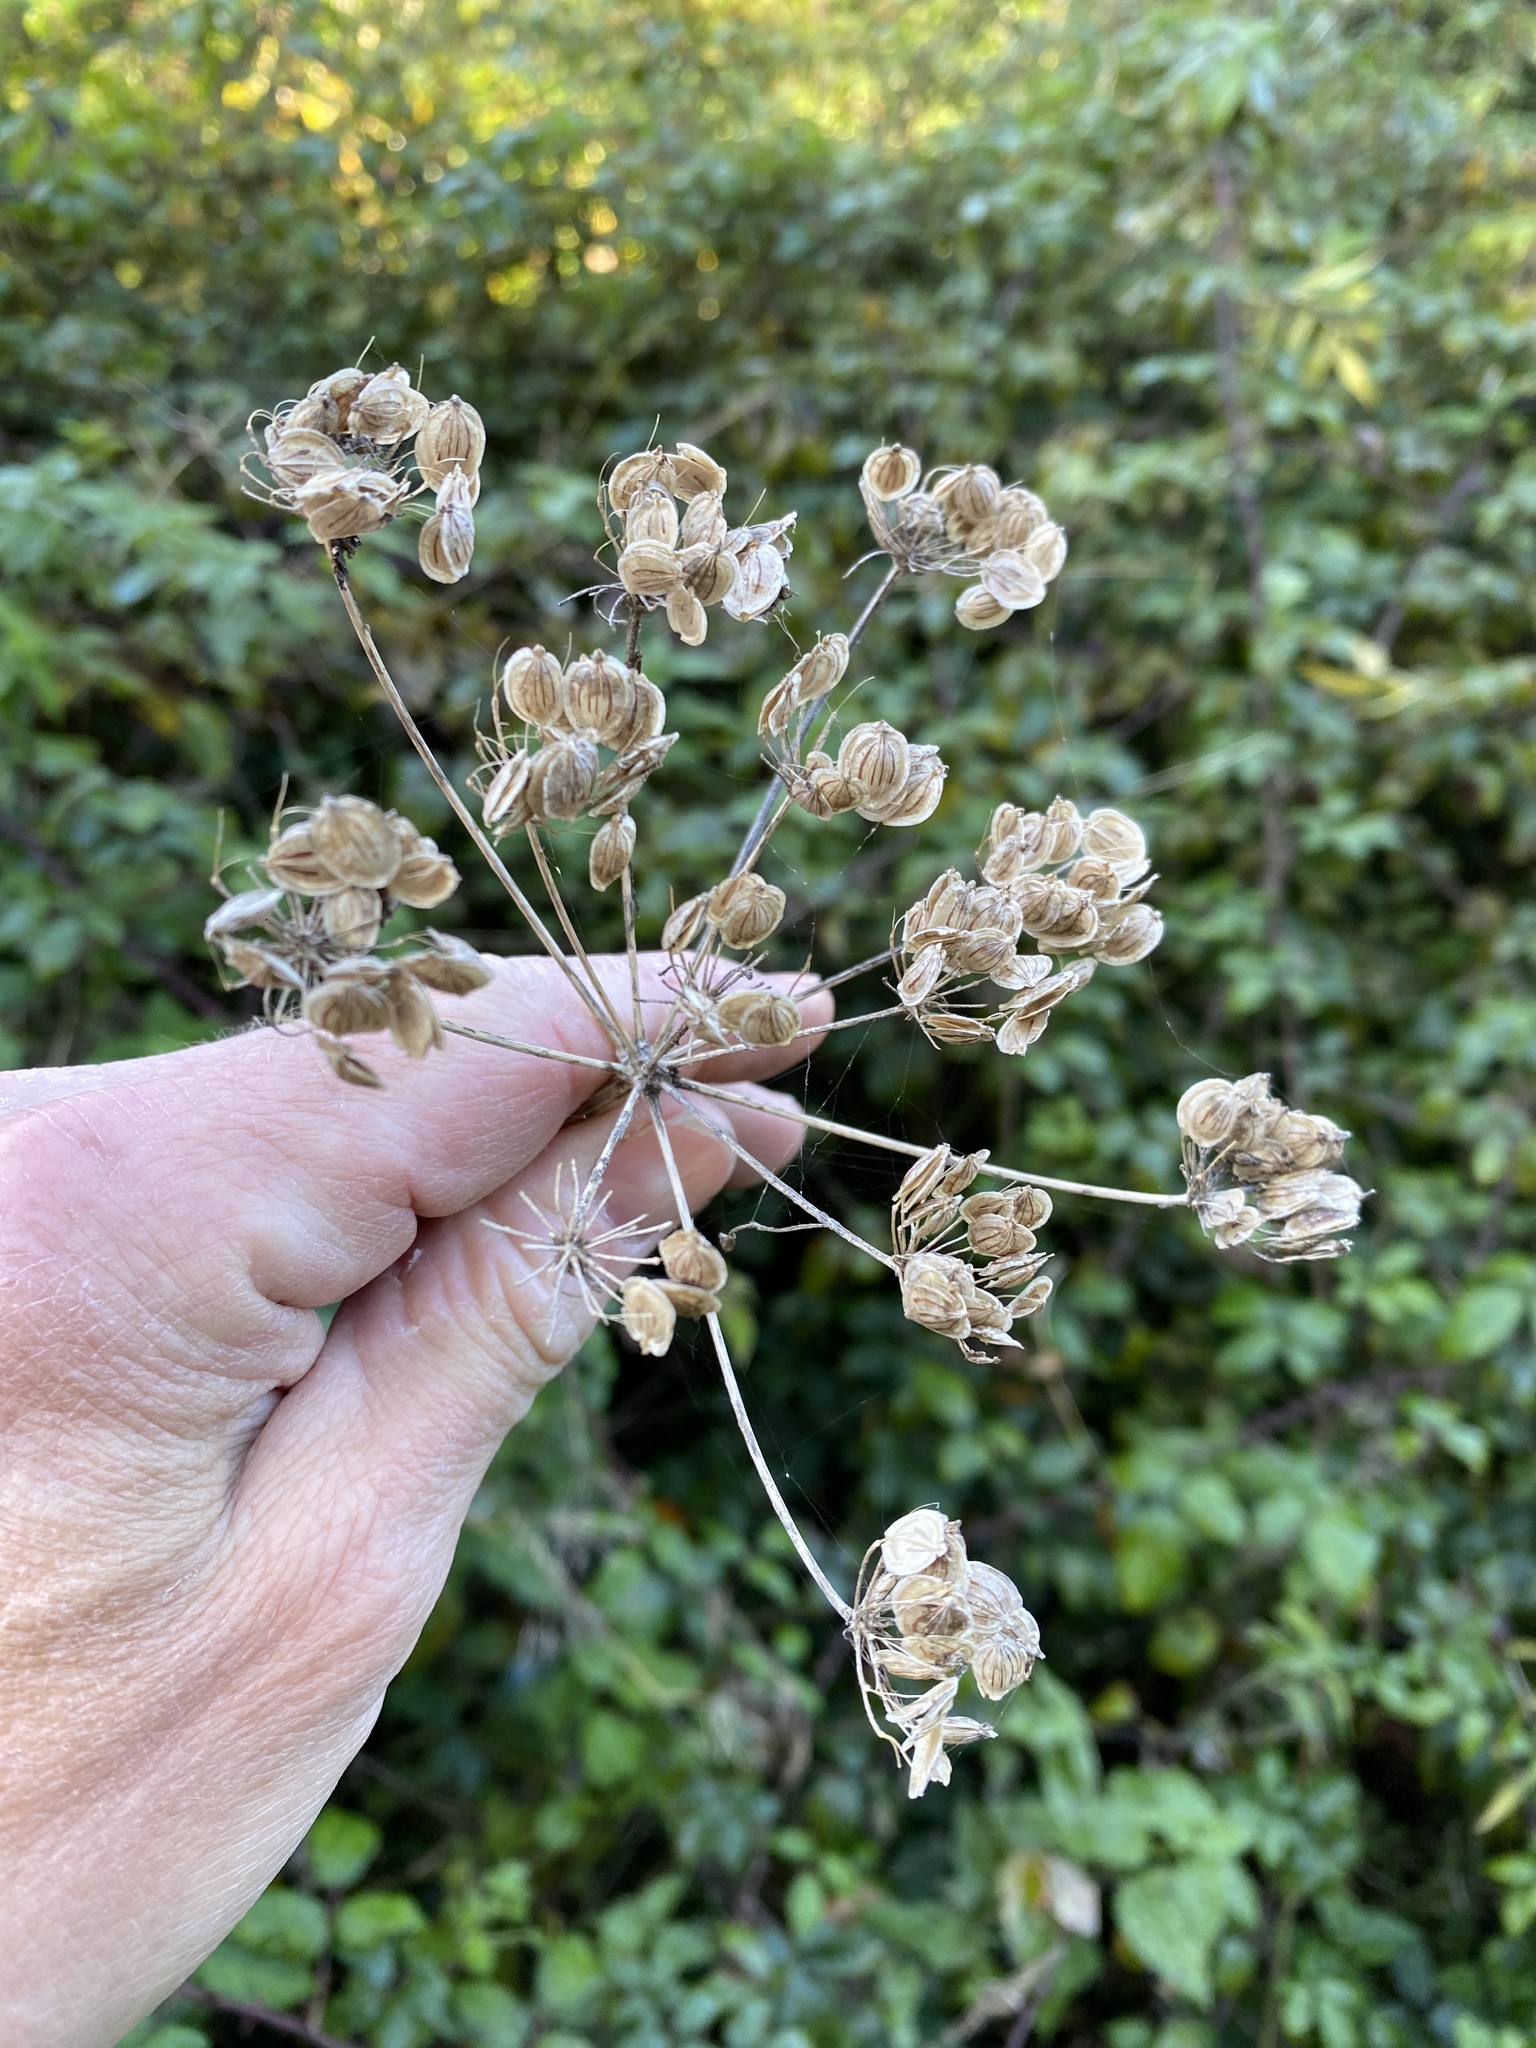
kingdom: Plantae
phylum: Tracheophyta
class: Magnoliopsida
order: Apiales
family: Apiaceae
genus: Heracleum
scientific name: Heracleum sphondylium
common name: Hogweed
